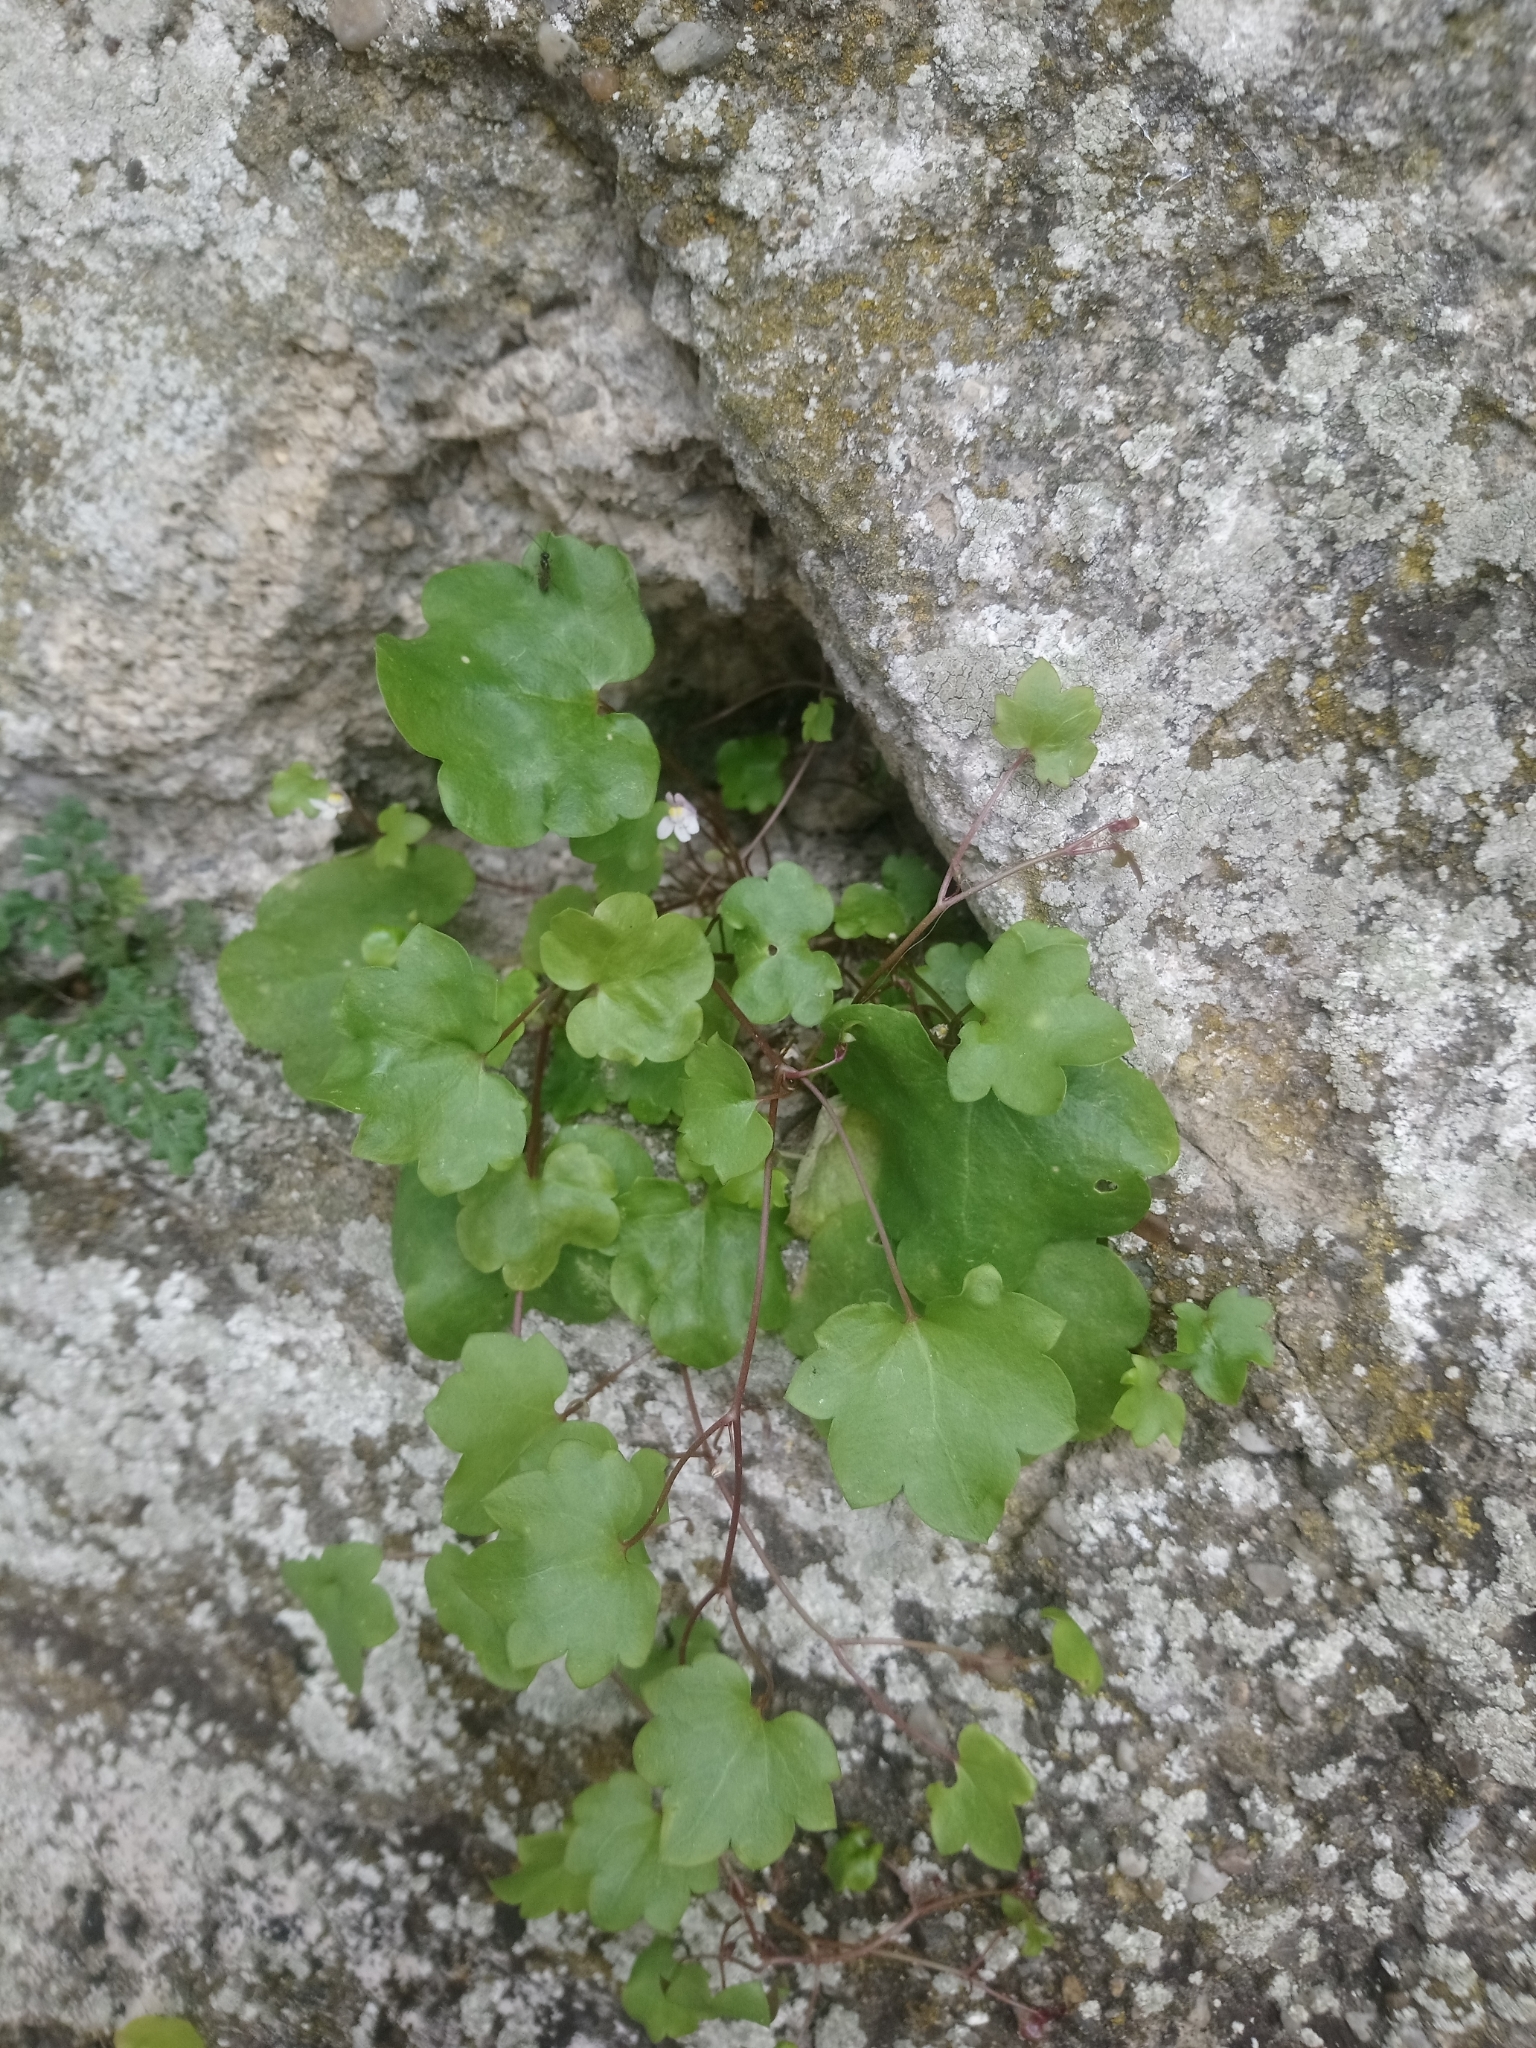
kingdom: Plantae
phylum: Tracheophyta
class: Magnoliopsida
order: Lamiales
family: Plantaginaceae
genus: Cymbalaria
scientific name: Cymbalaria muralis
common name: Ivy-leaved toadflax
